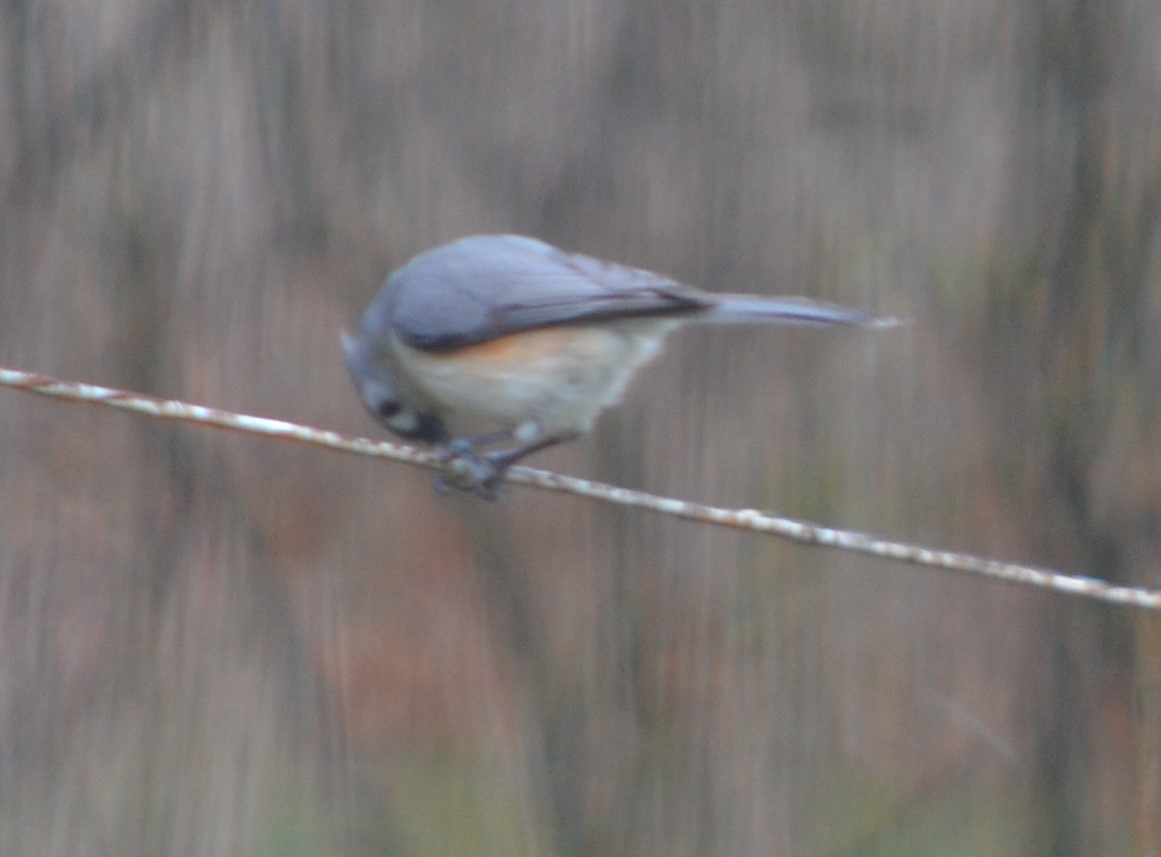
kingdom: Animalia
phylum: Chordata
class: Aves
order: Passeriformes
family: Paridae
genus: Baeolophus
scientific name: Baeolophus bicolor
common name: Tufted titmouse
